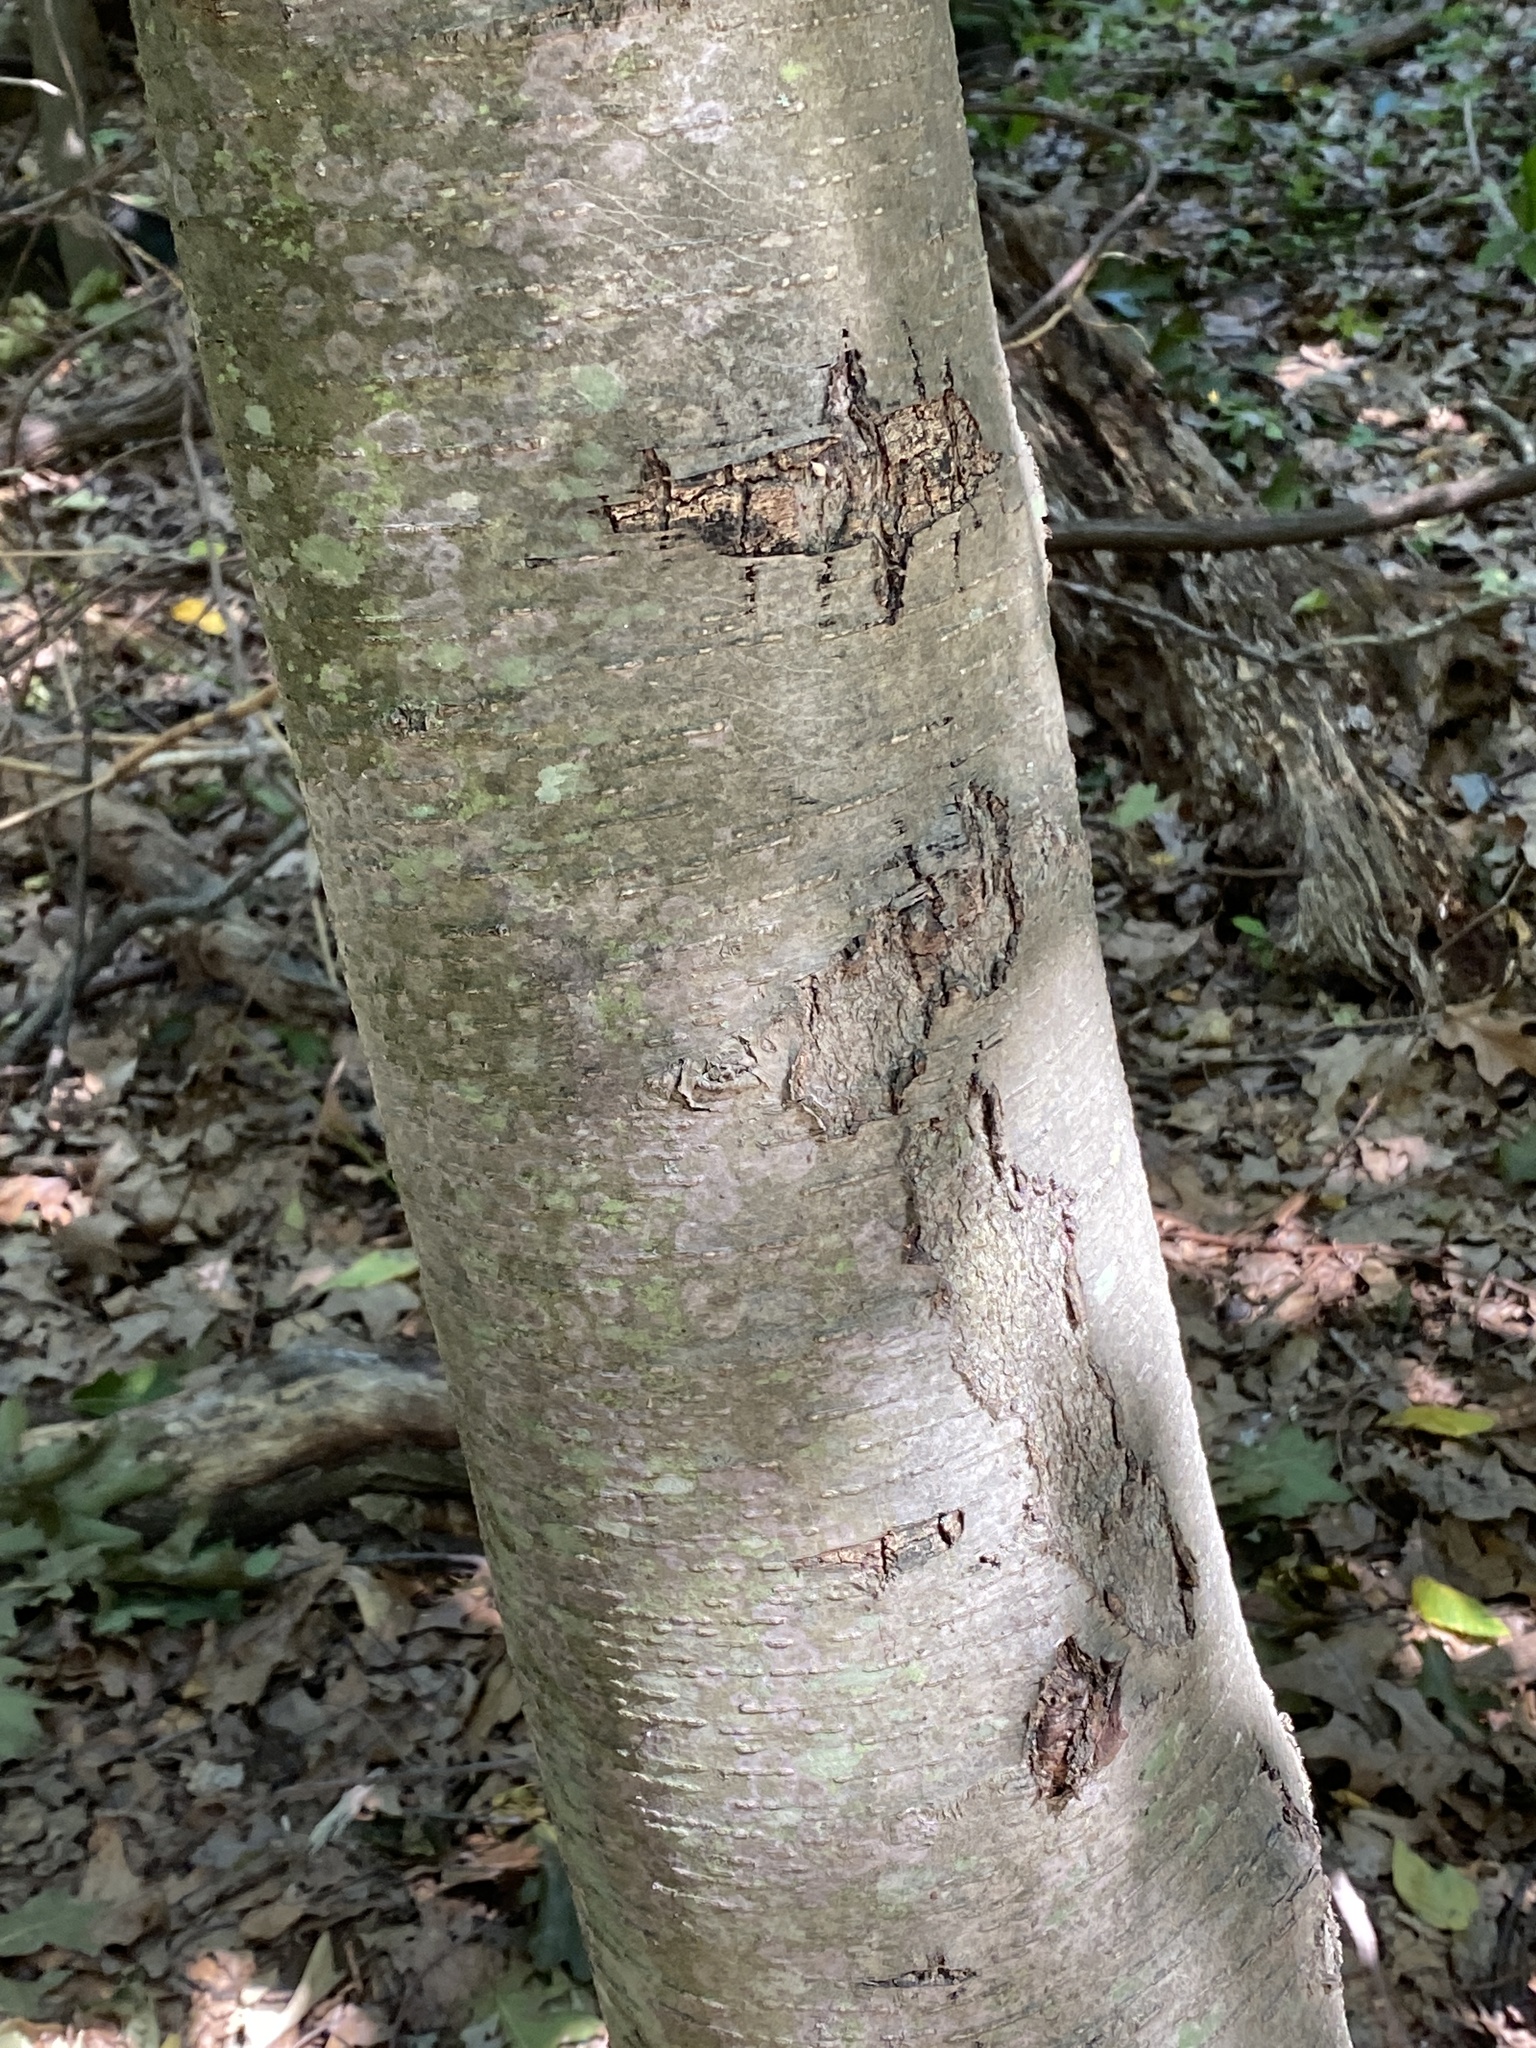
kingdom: Plantae
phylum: Tracheophyta
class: Magnoliopsida
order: Fagales
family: Betulaceae
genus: Betula
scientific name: Betula lenta
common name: Black birch
